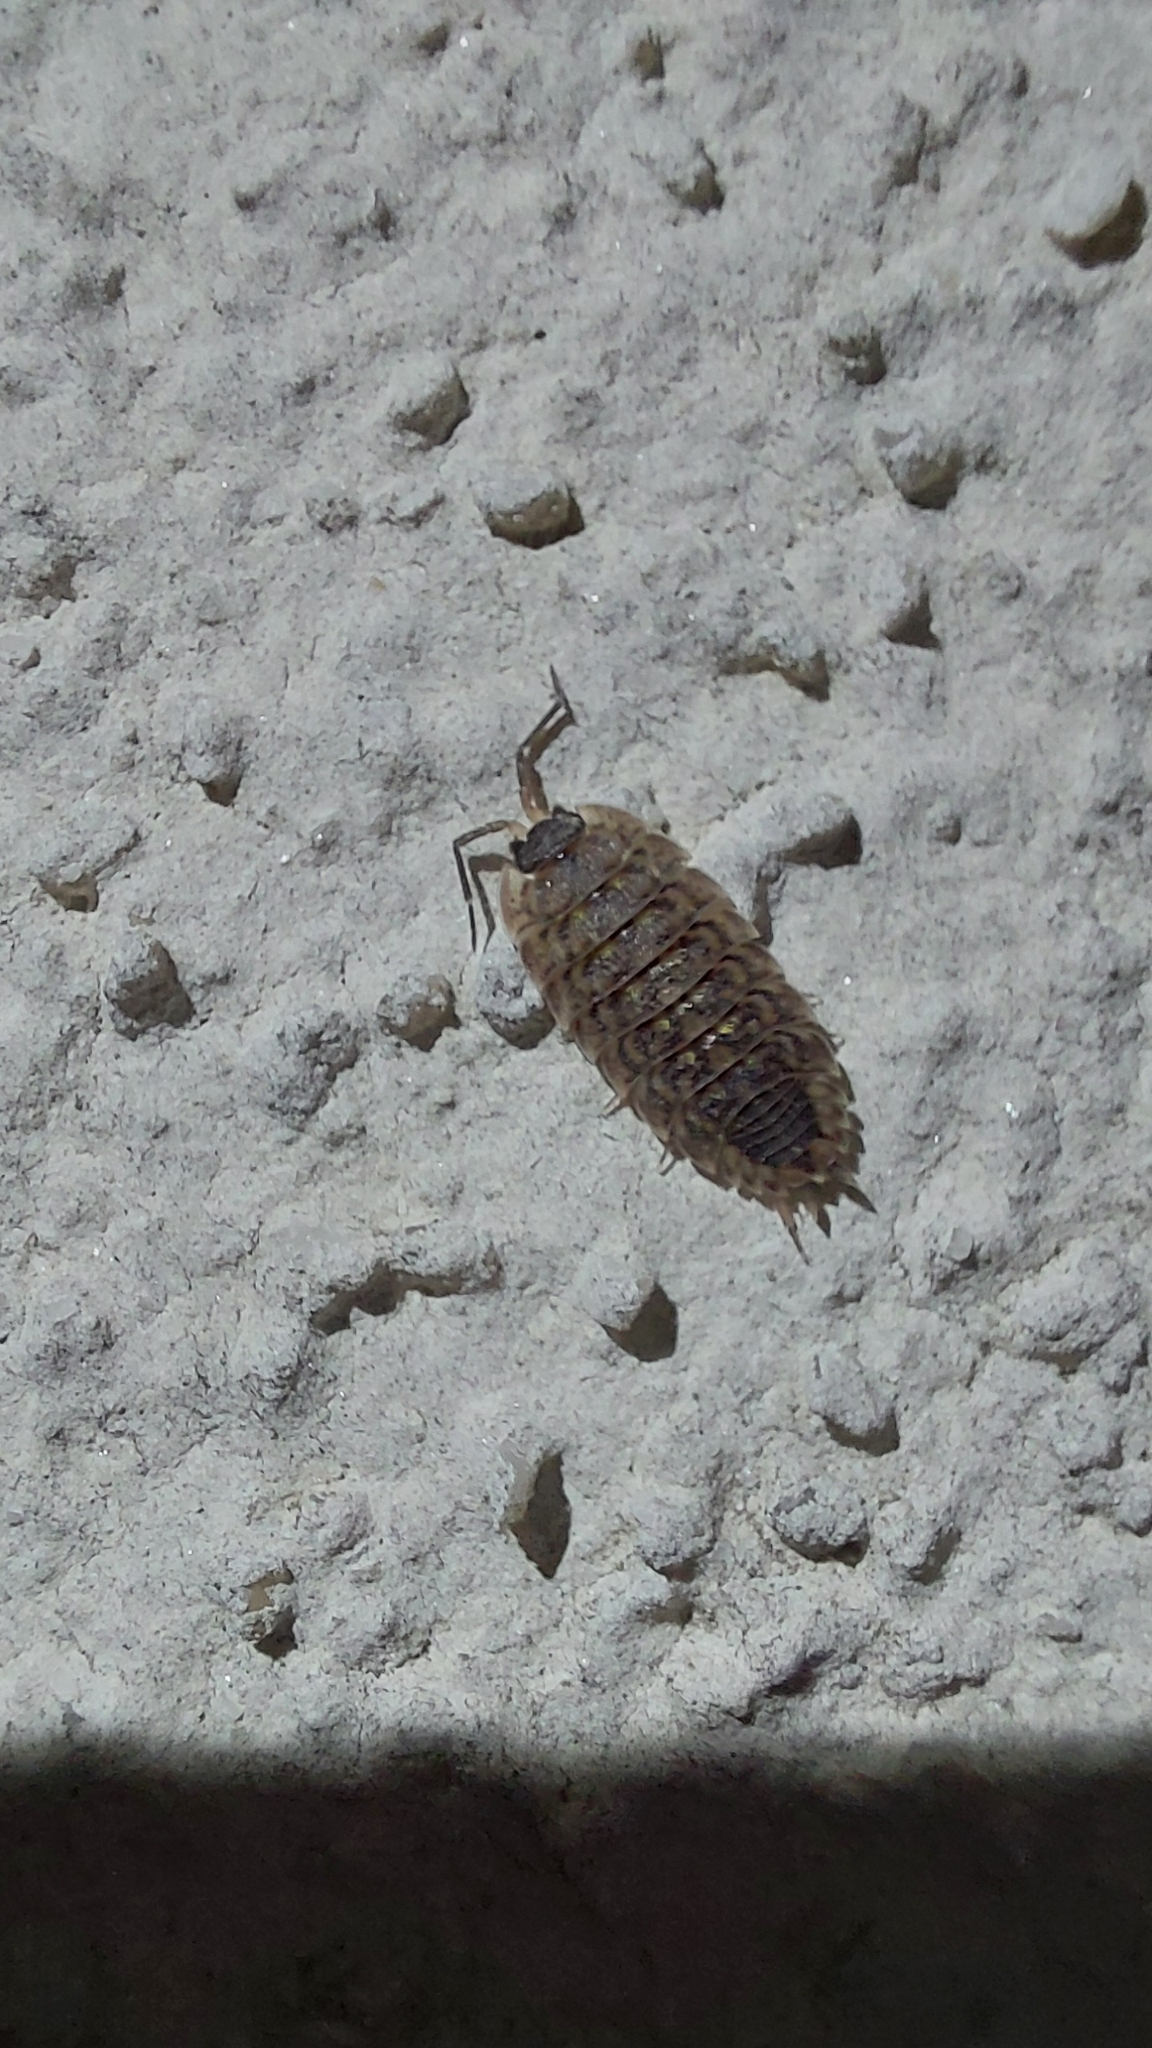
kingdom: Animalia
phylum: Arthropoda
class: Malacostraca
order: Isopoda
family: Porcellionidae
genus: Porcellio
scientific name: Porcellio spinicornis
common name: Painted woodlouse
